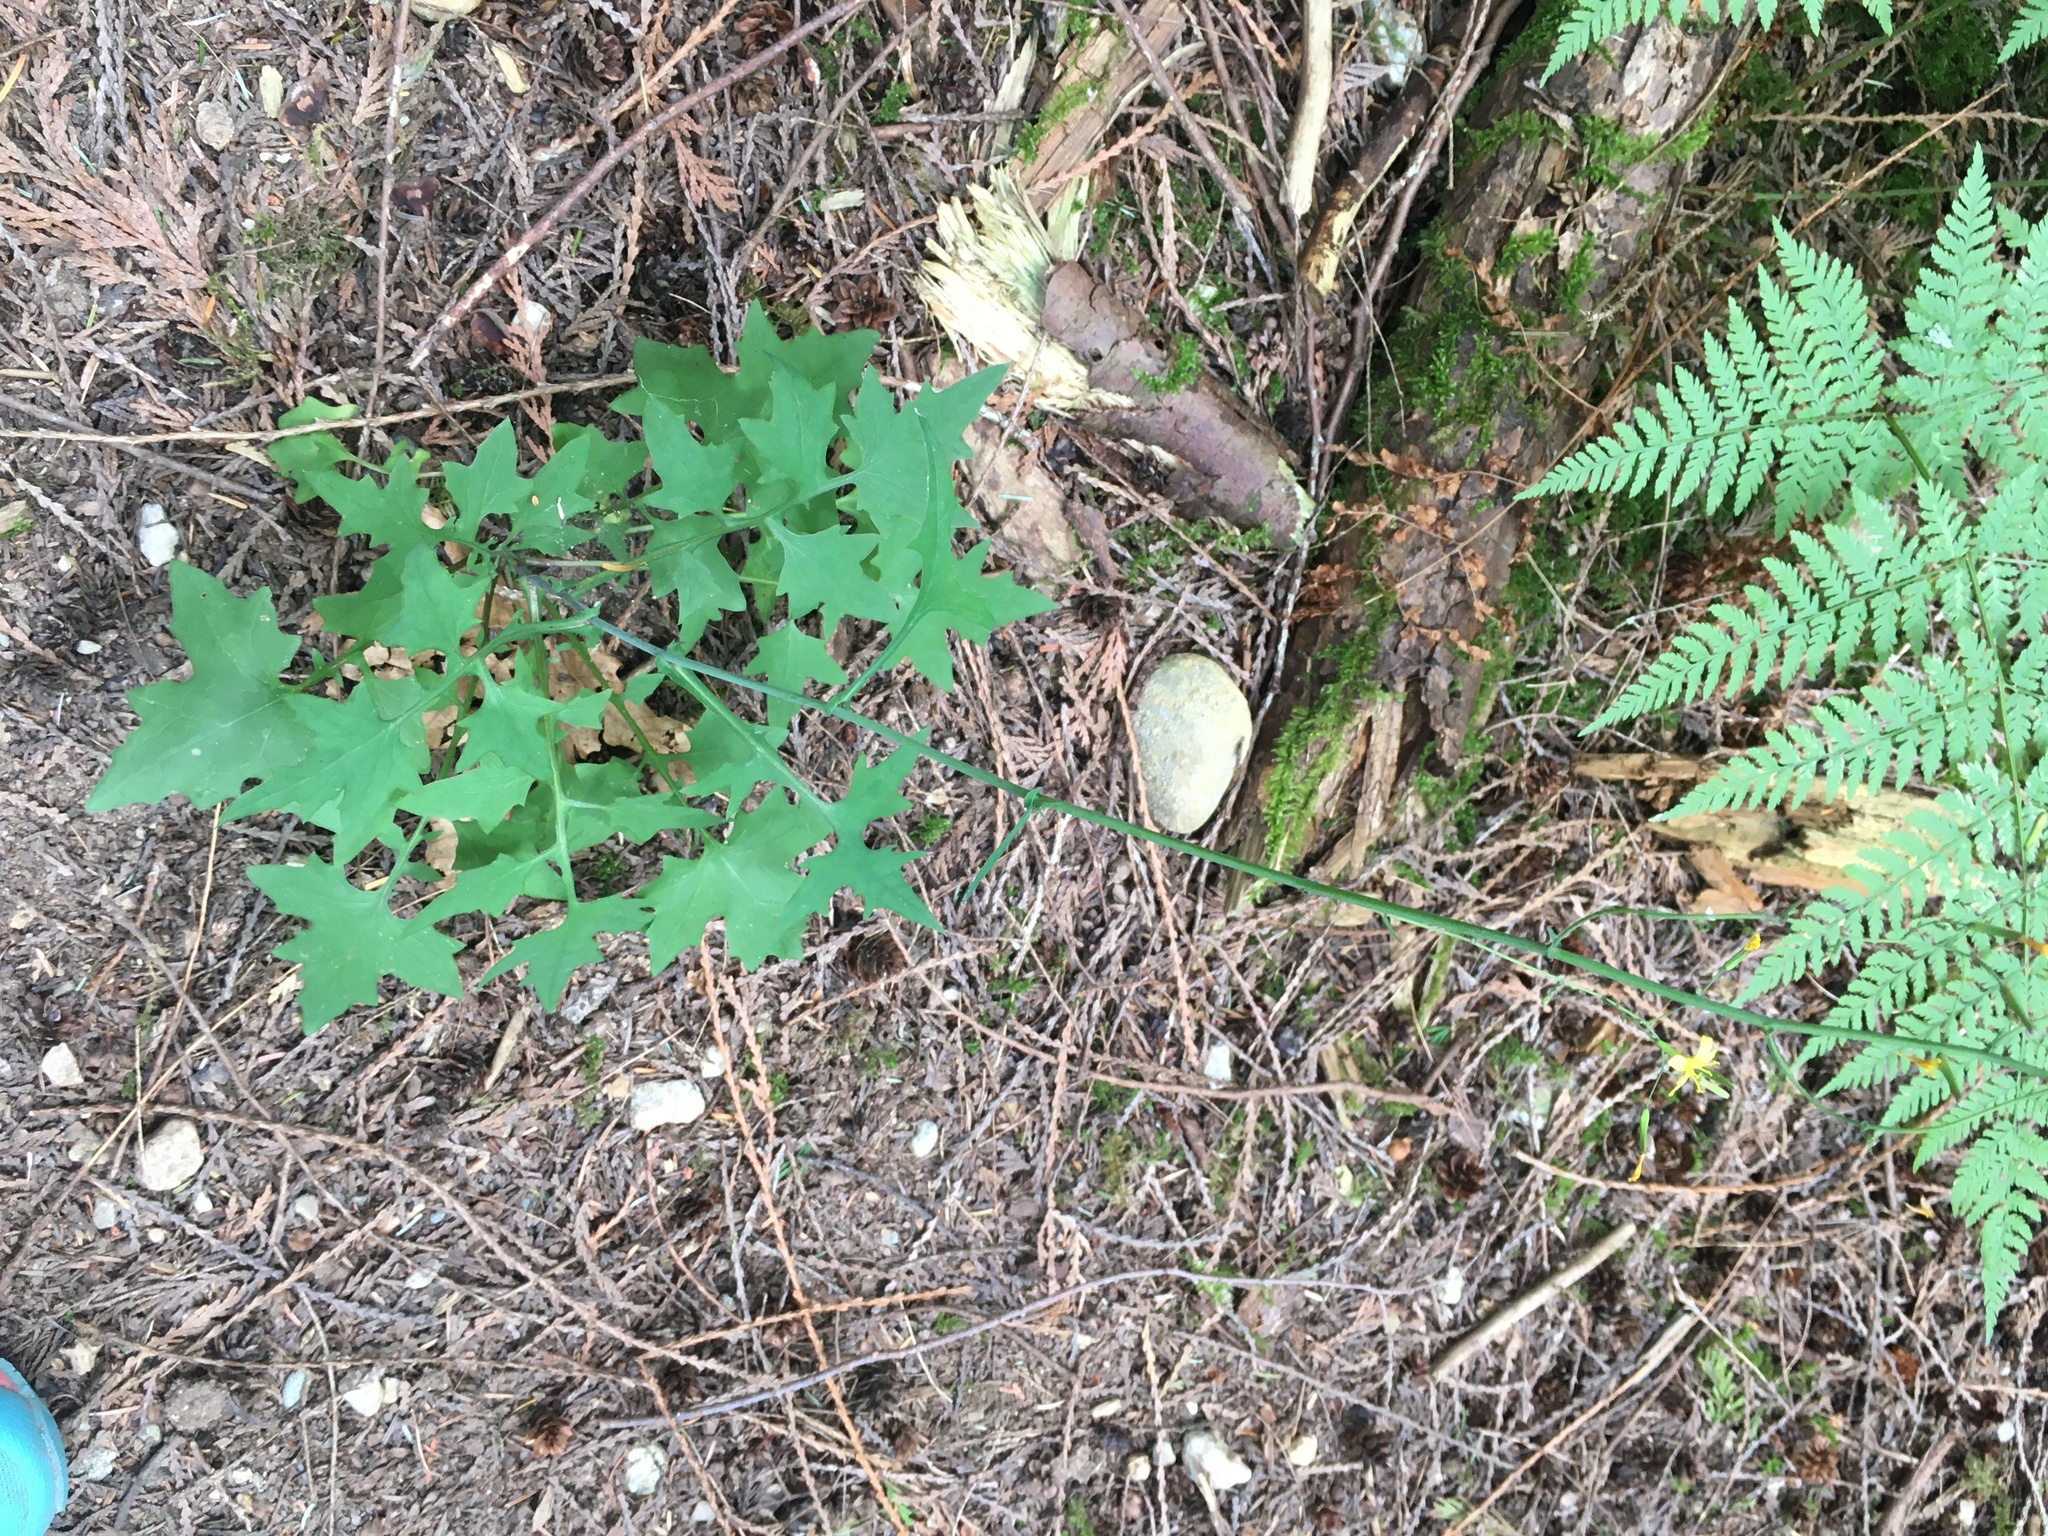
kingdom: Plantae
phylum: Tracheophyta
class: Magnoliopsida
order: Asterales
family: Asteraceae
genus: Mycelis
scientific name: Mycelis muralis
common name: Wall lettuce
